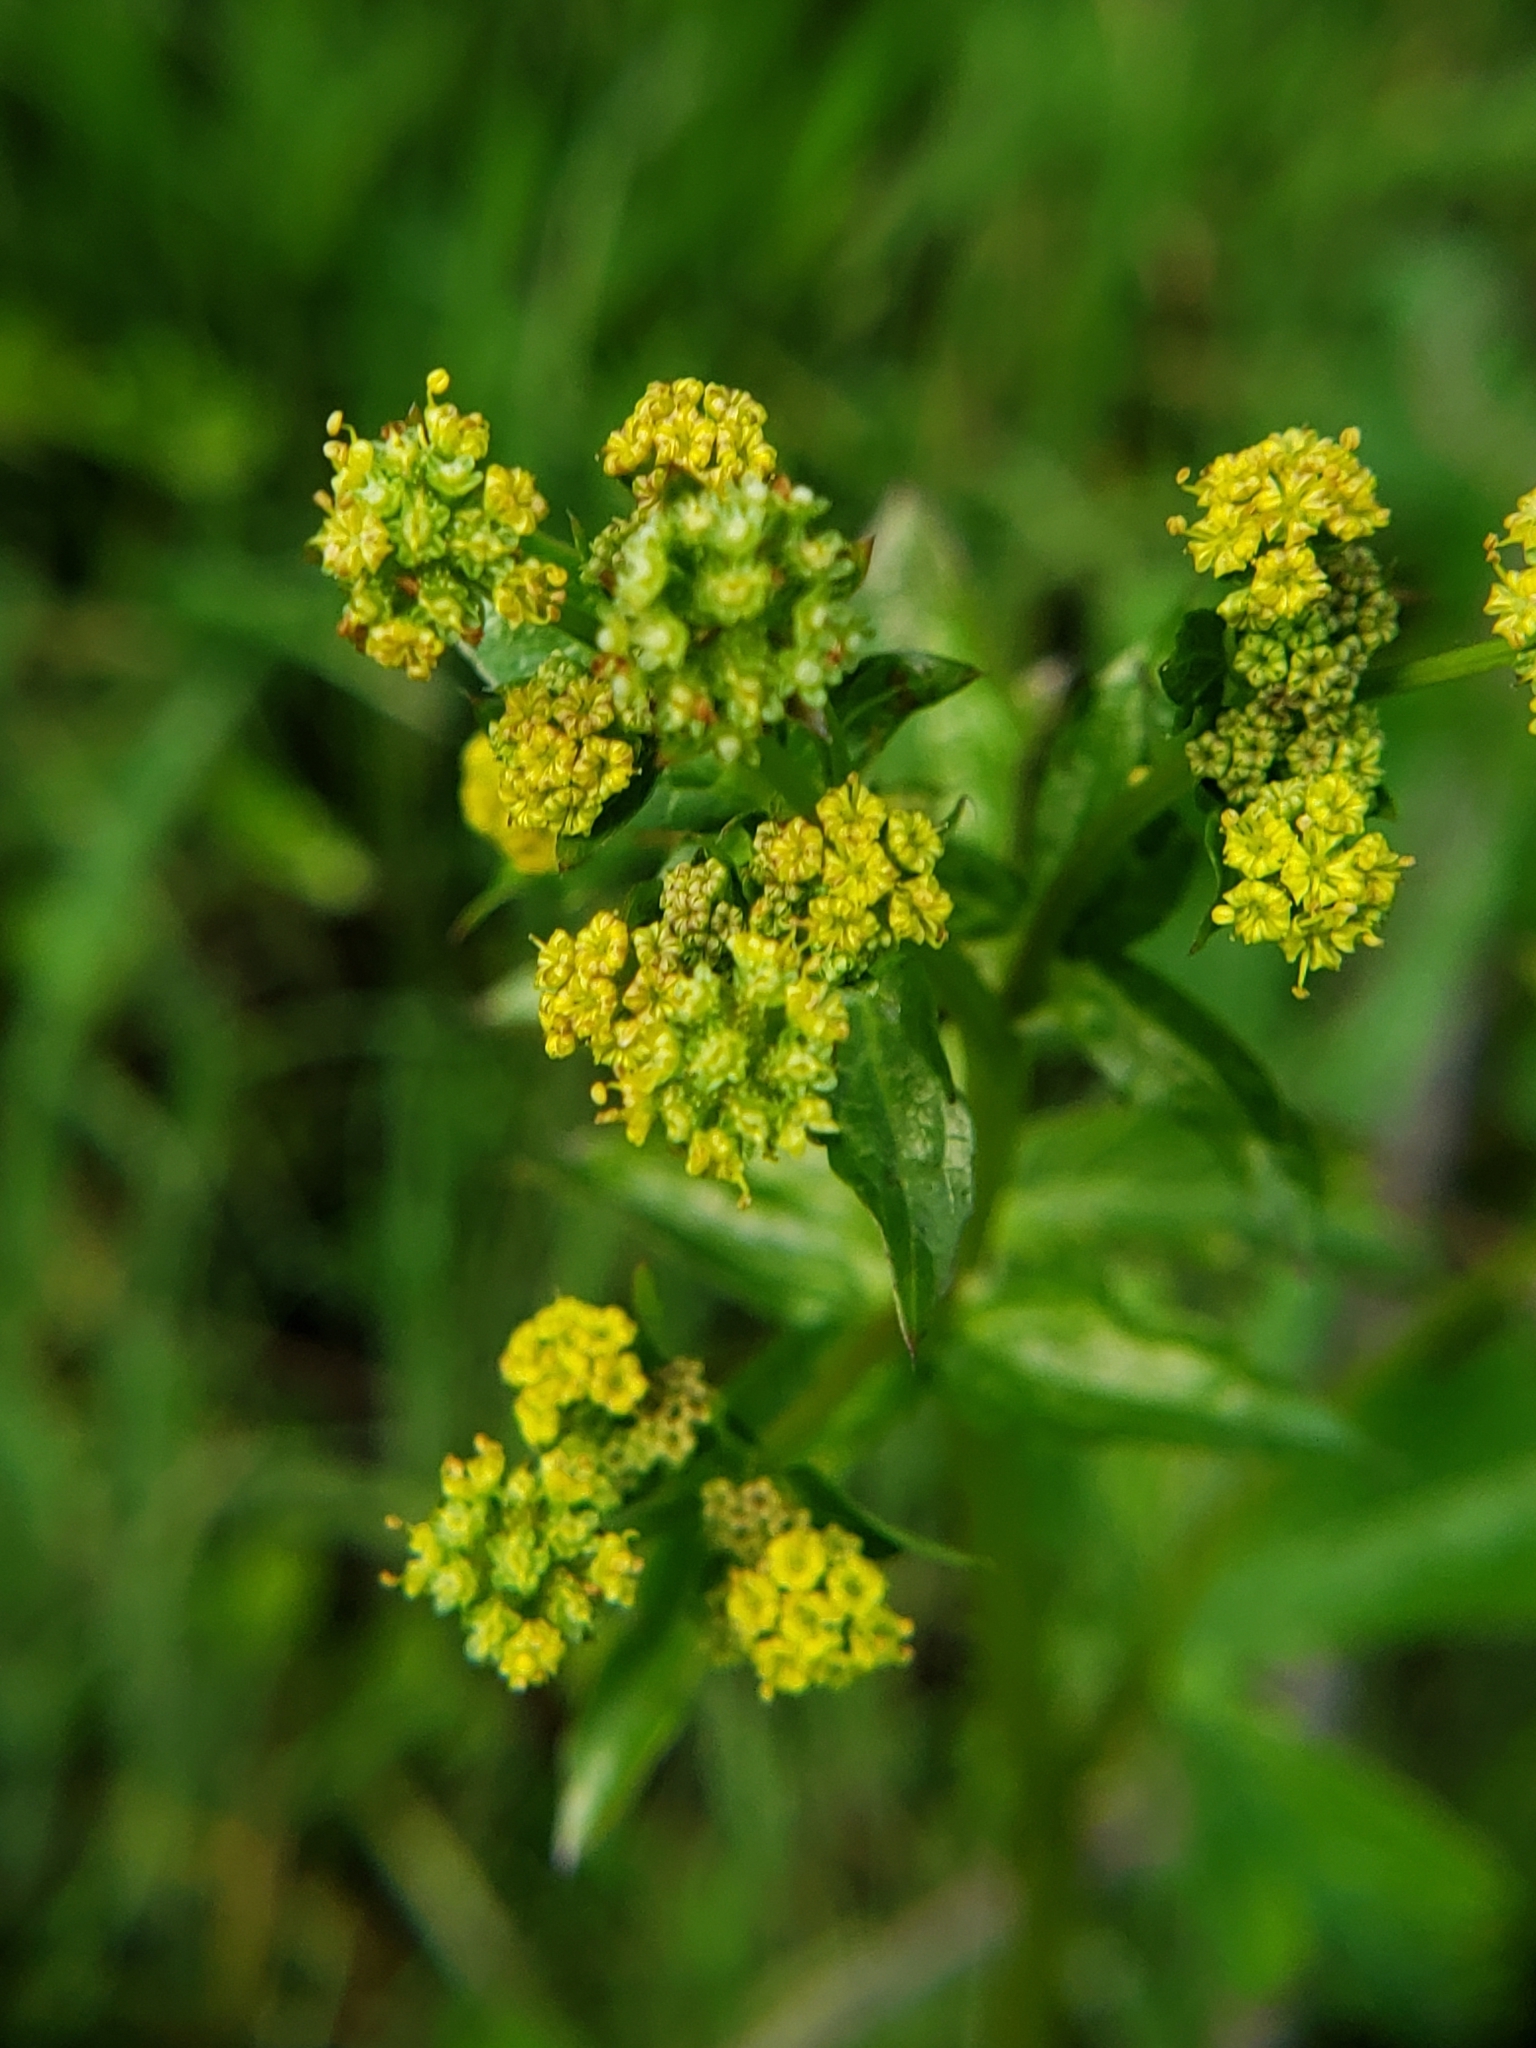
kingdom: Plantae
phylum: Tracheophyta
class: Magnoliopsida
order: Apiales
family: Apiaceae
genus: Sanicula
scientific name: Sanicula crassicaulis
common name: Western snakeroot
